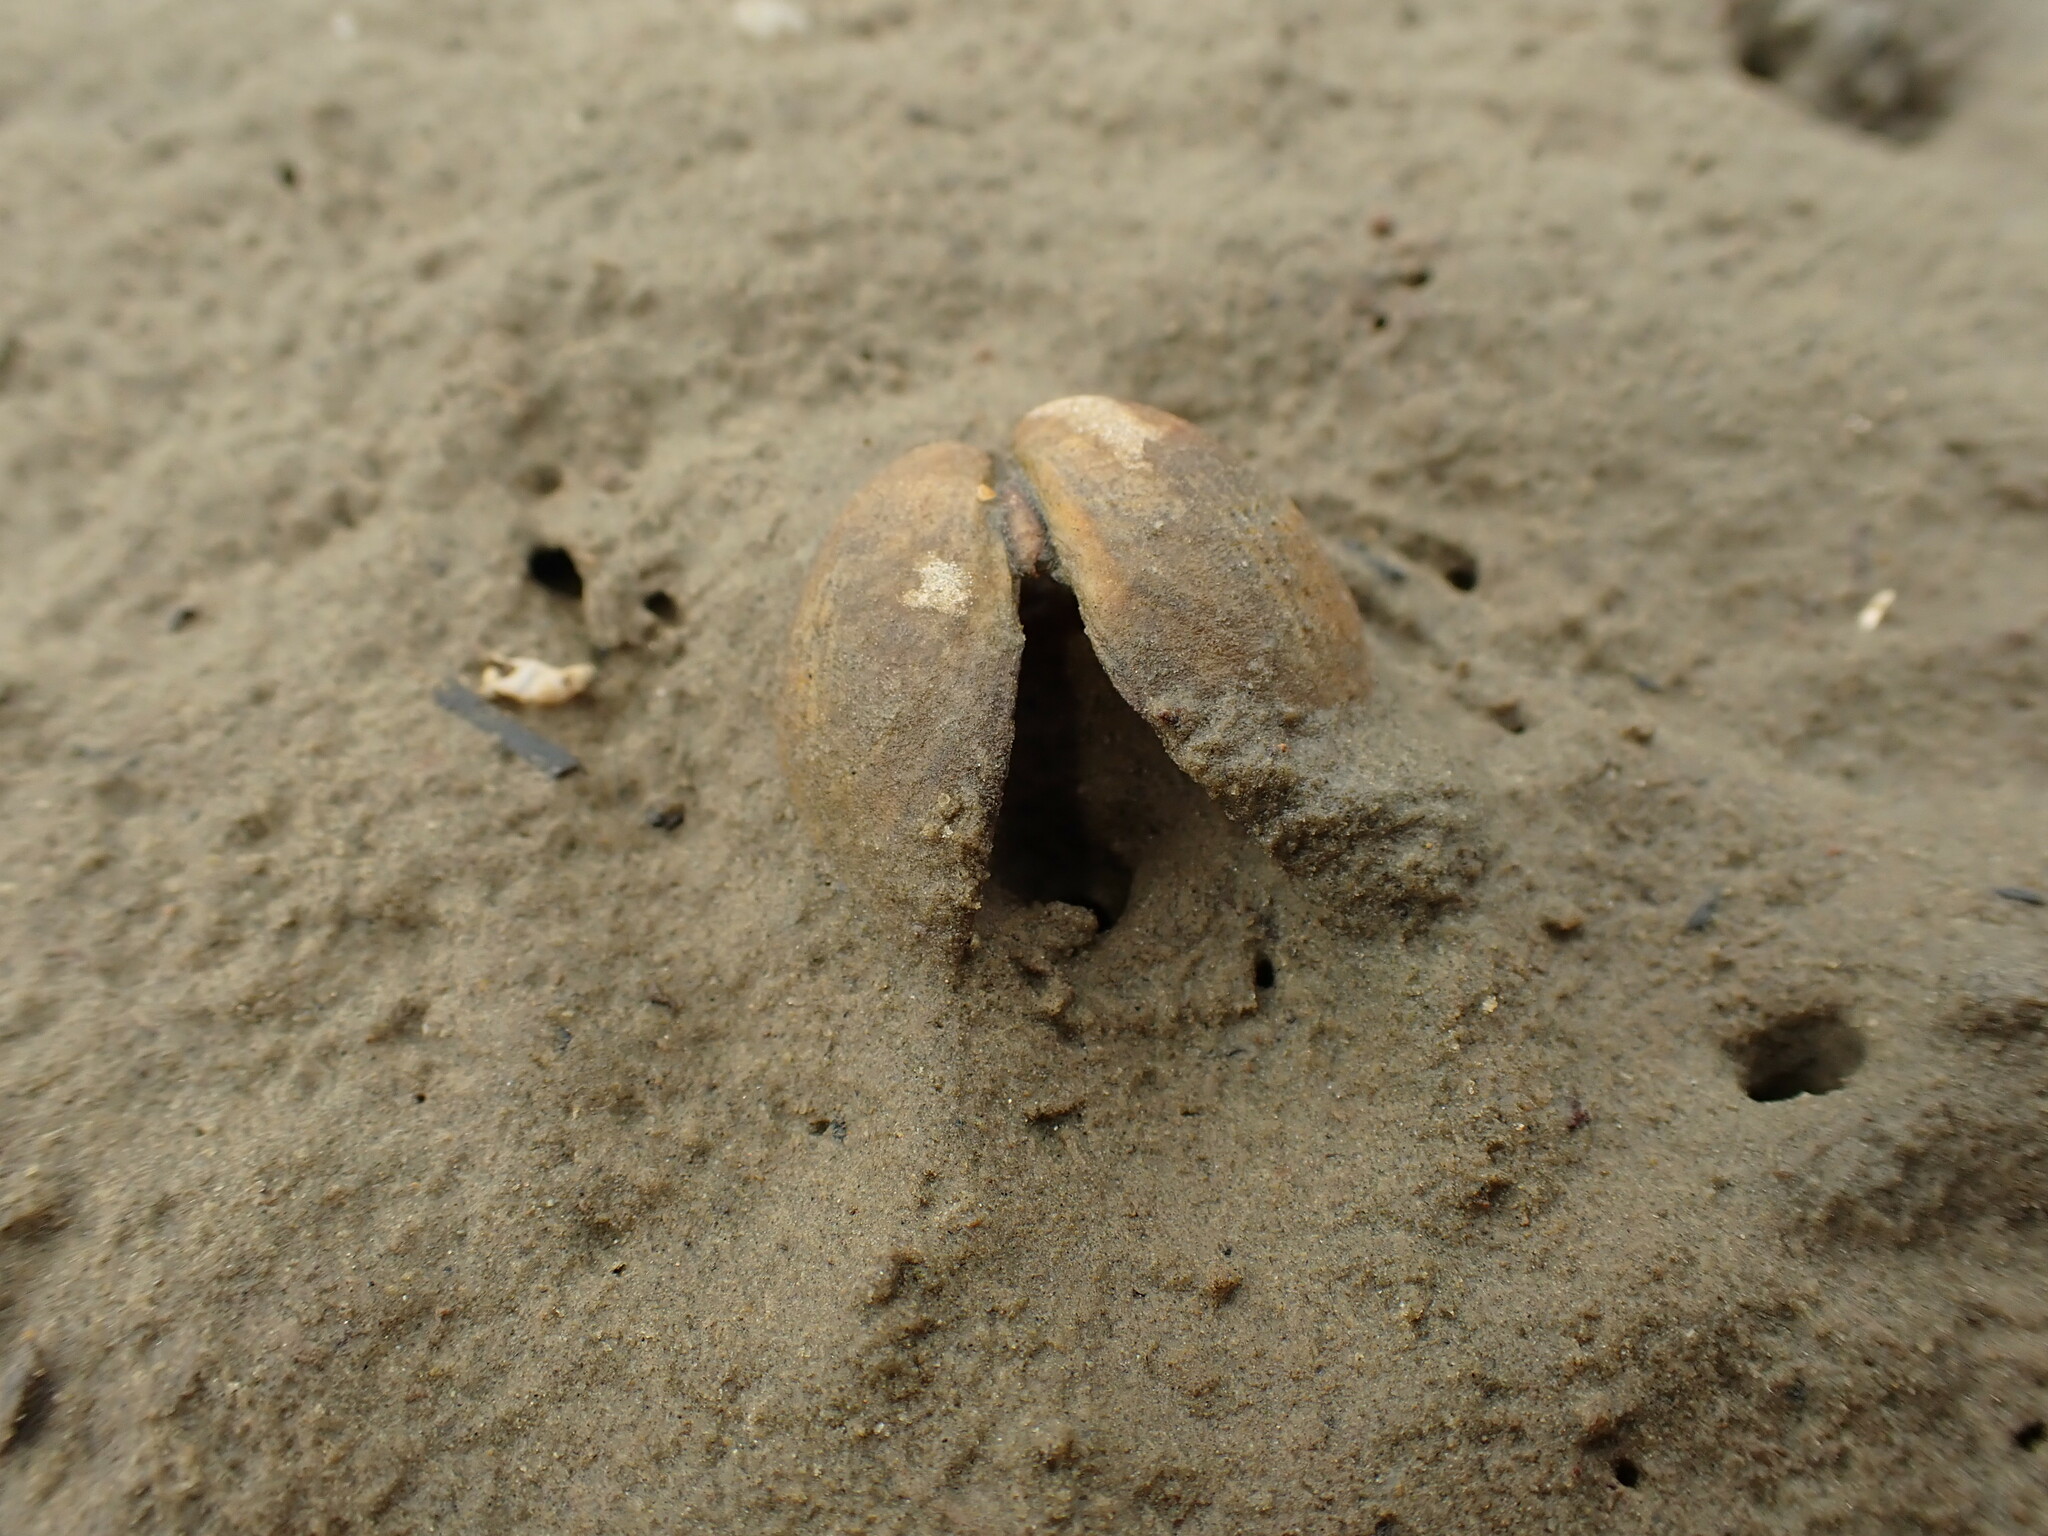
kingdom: Animalia
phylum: Mollusca
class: Bivalvia
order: Venerida
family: Veneridae
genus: Austrovenus
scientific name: Austrovenus stutchburyi
